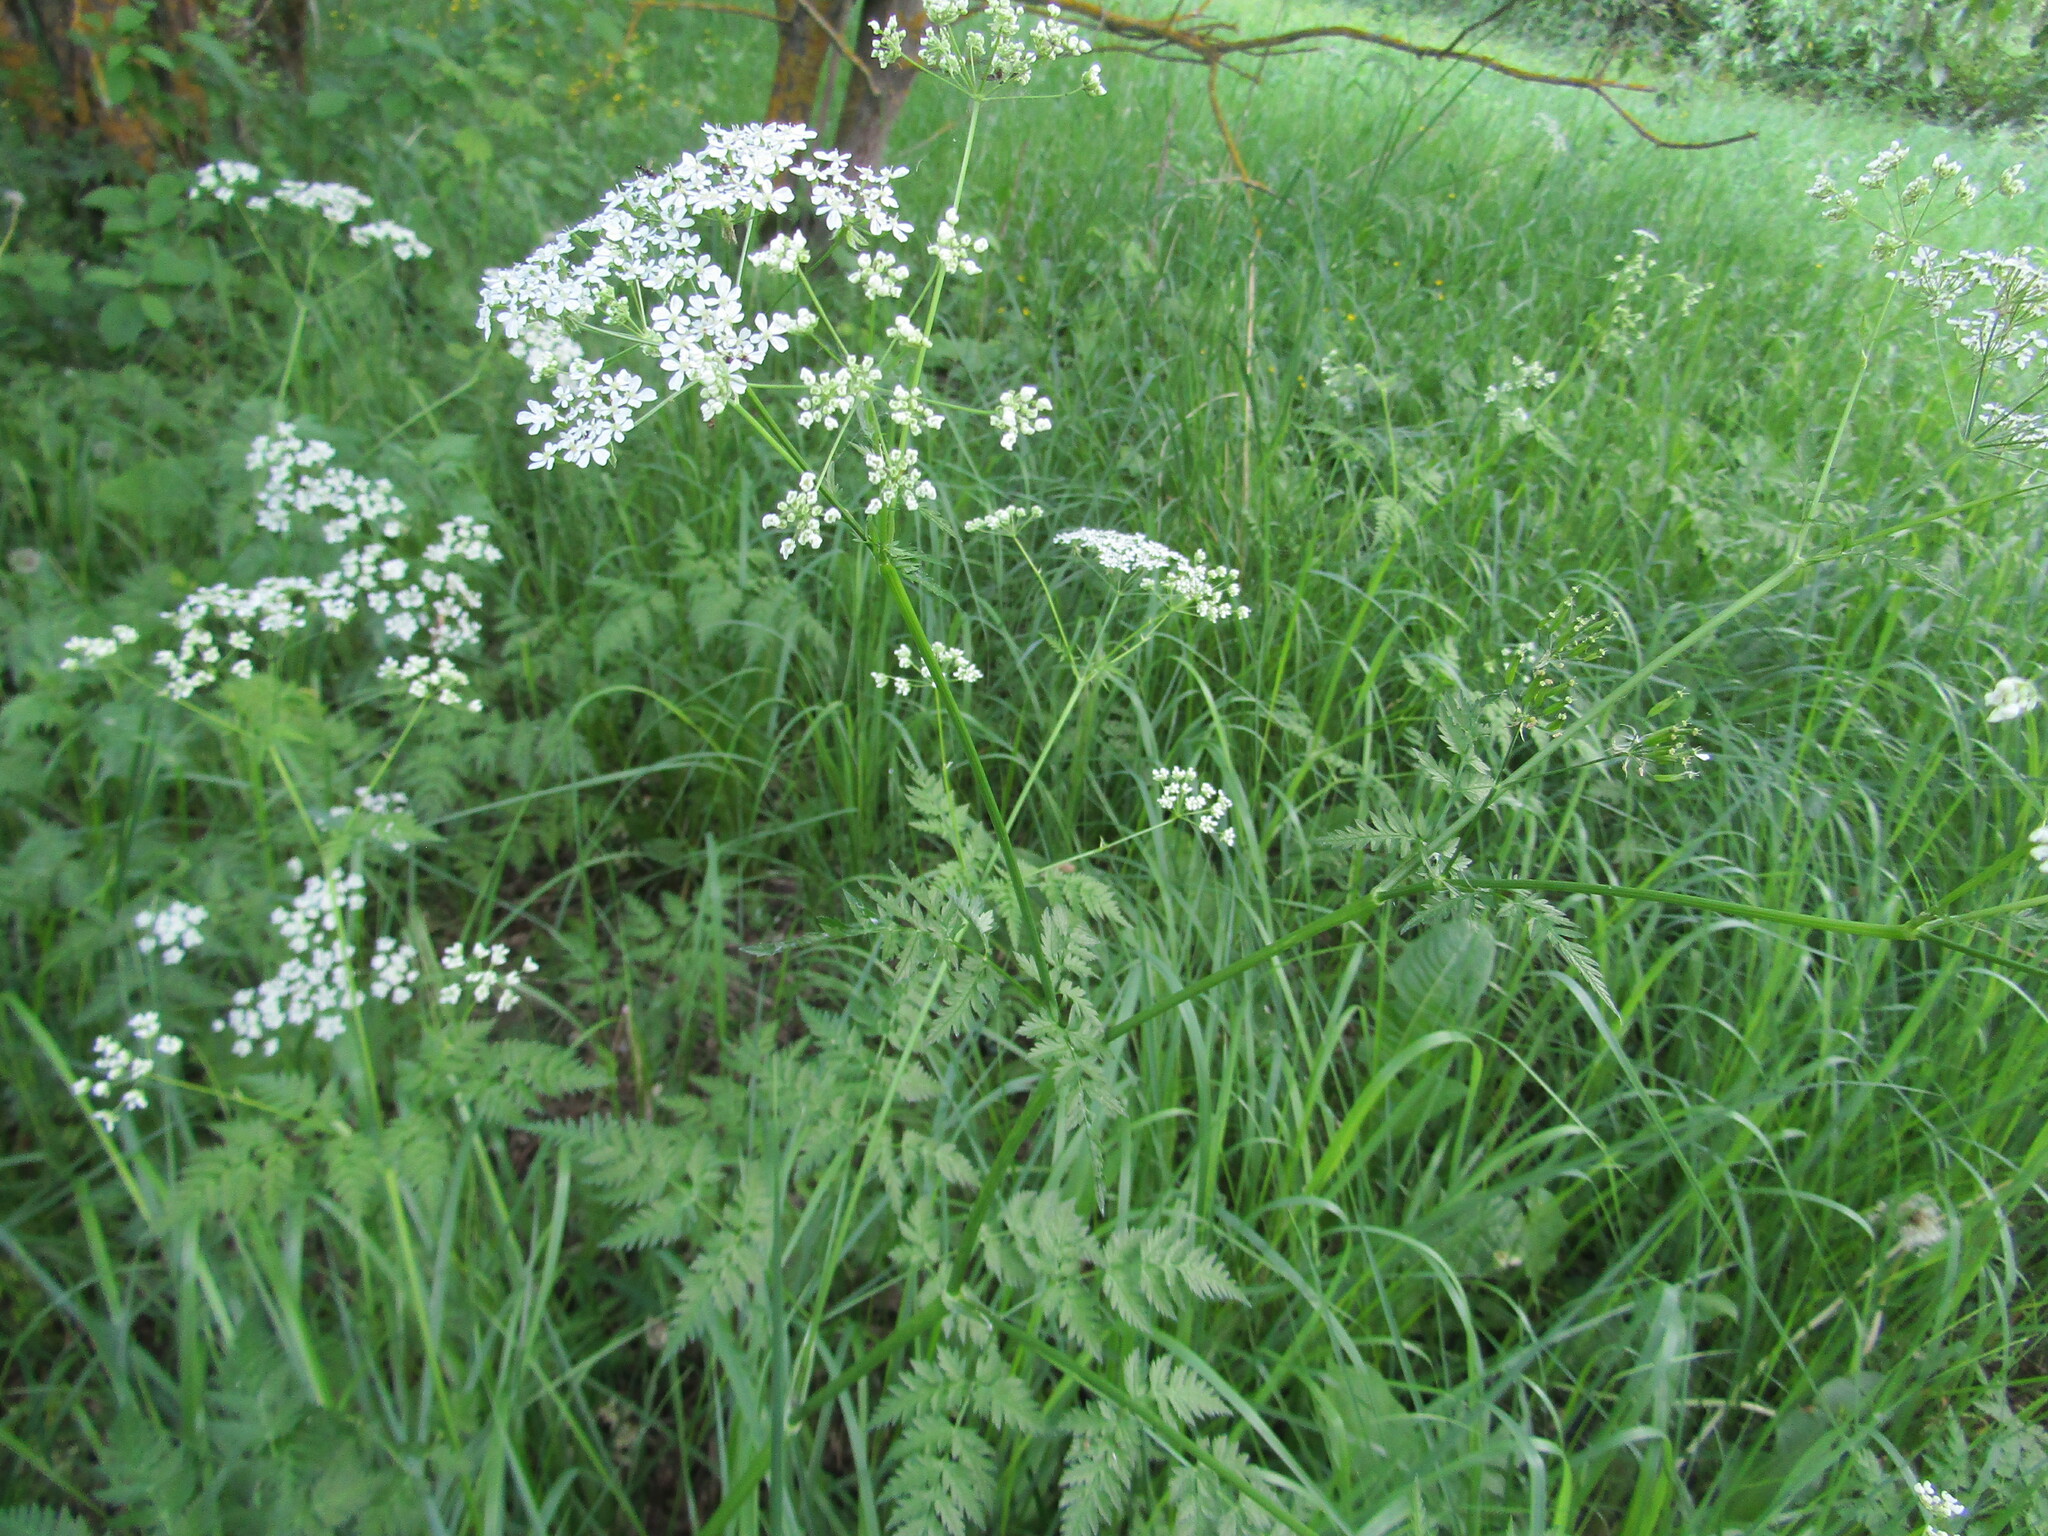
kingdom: Plantae
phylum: Tracheophyta
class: Magnoliopsida
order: Apiales
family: Apiaceae
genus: Anthriscus
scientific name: Anthriscus sylvestris
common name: Cow parsley
